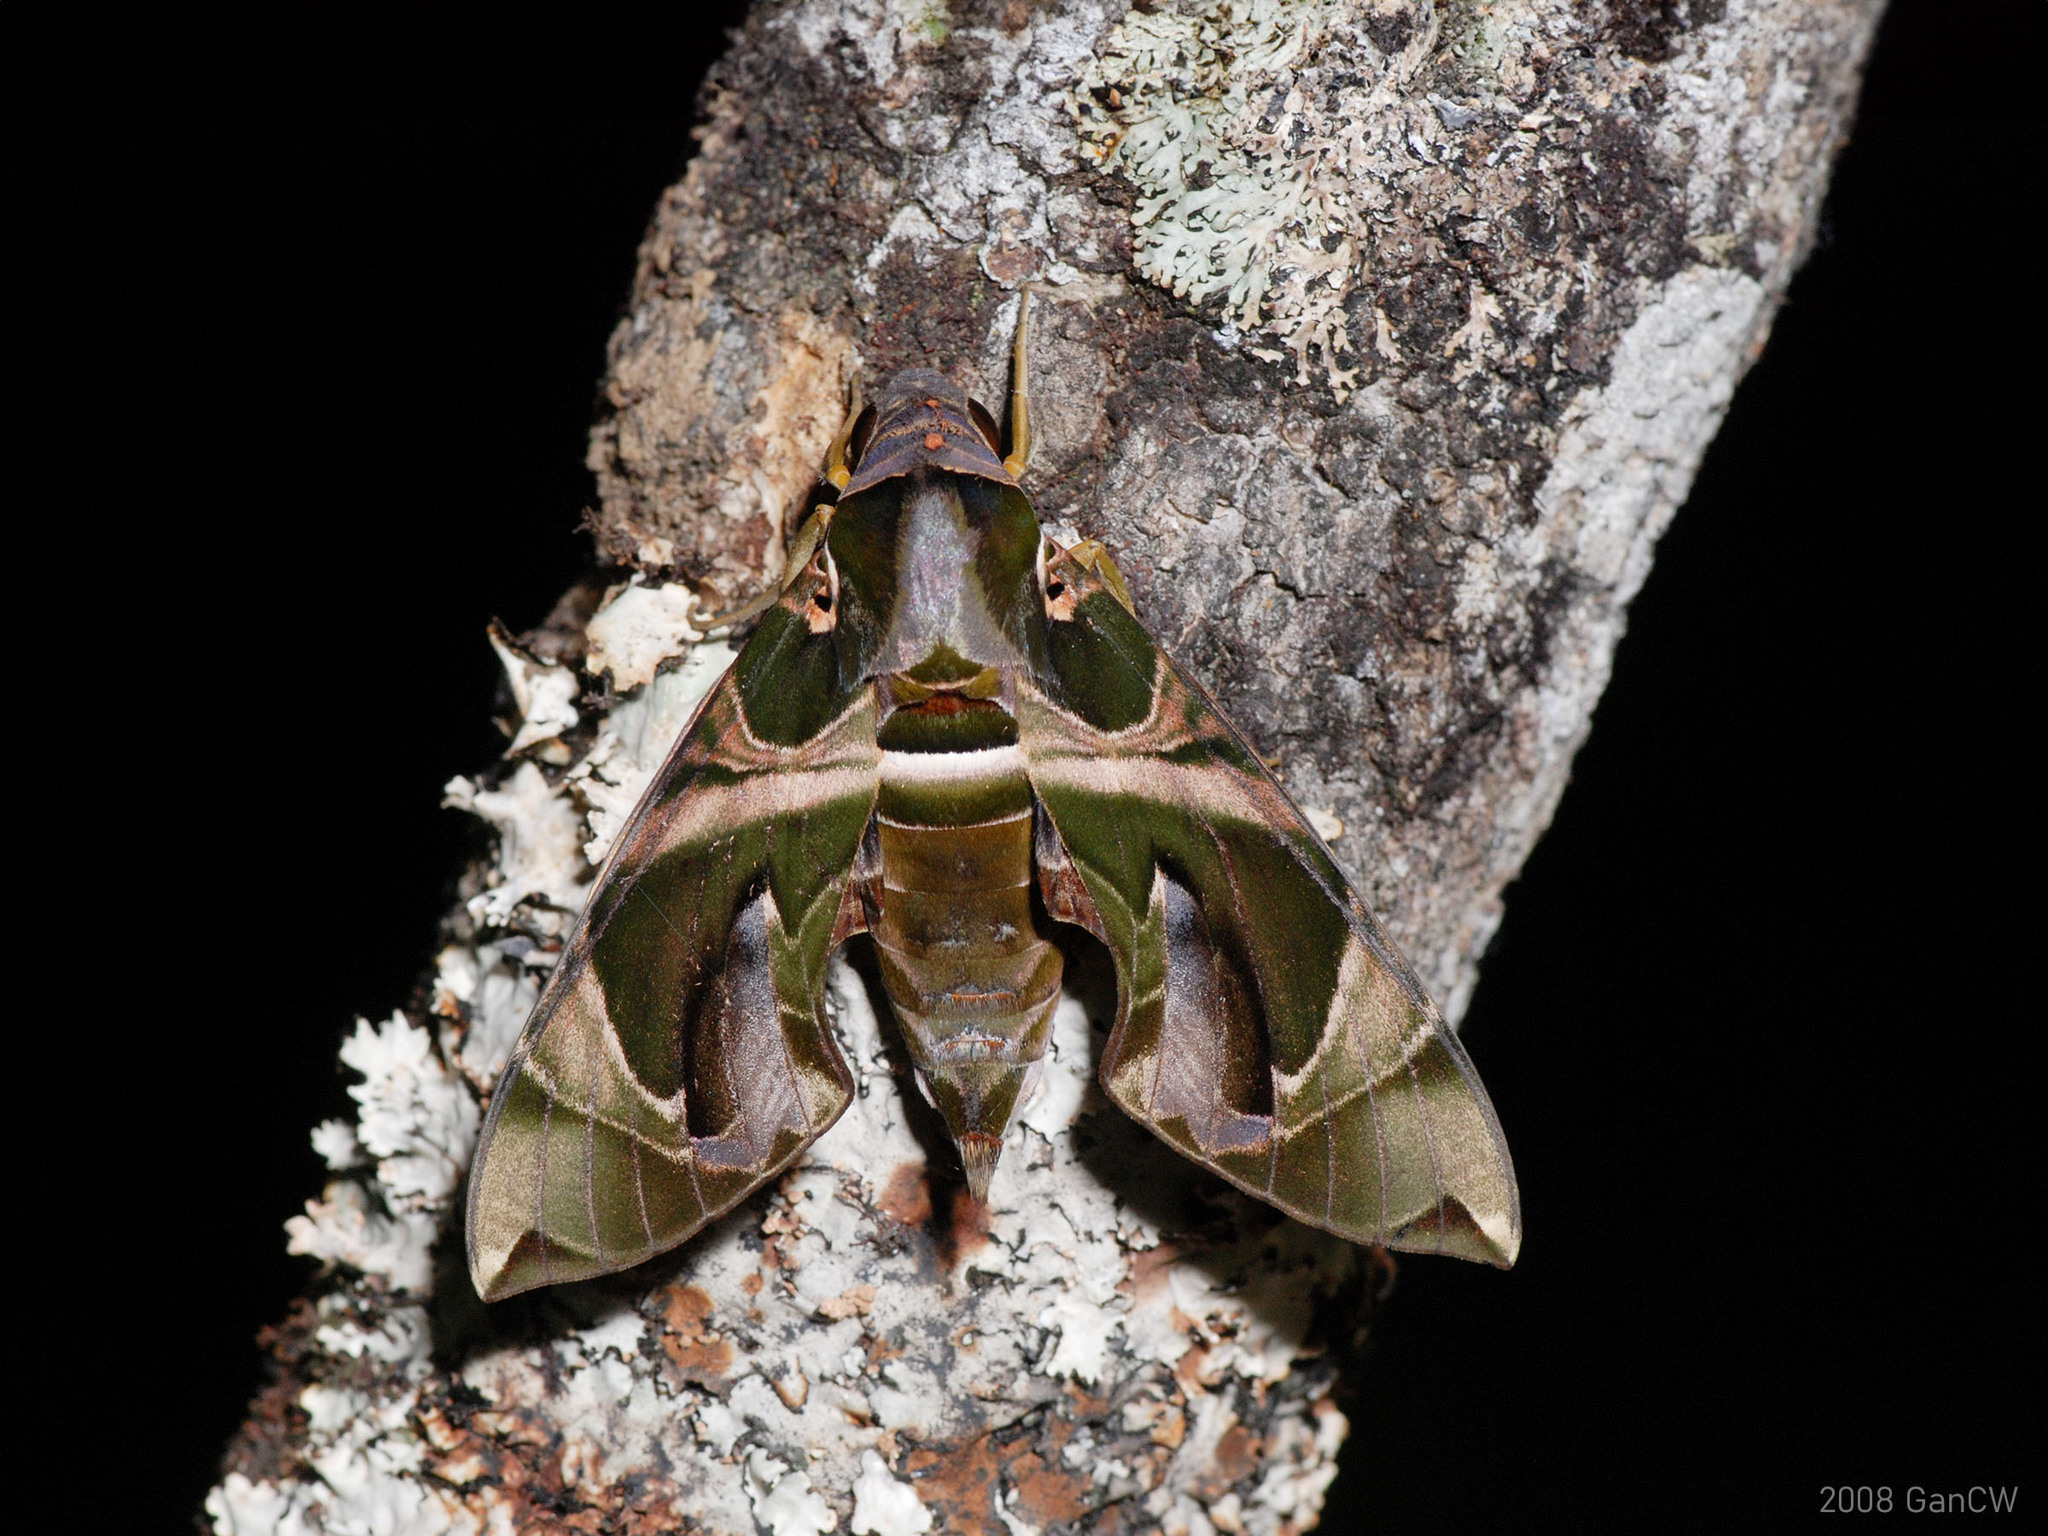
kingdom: Animalia
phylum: Arthropoda
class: Insecta
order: Lepidoptera
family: Sphingidae
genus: Daphnis
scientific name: Daphnis hypothous
